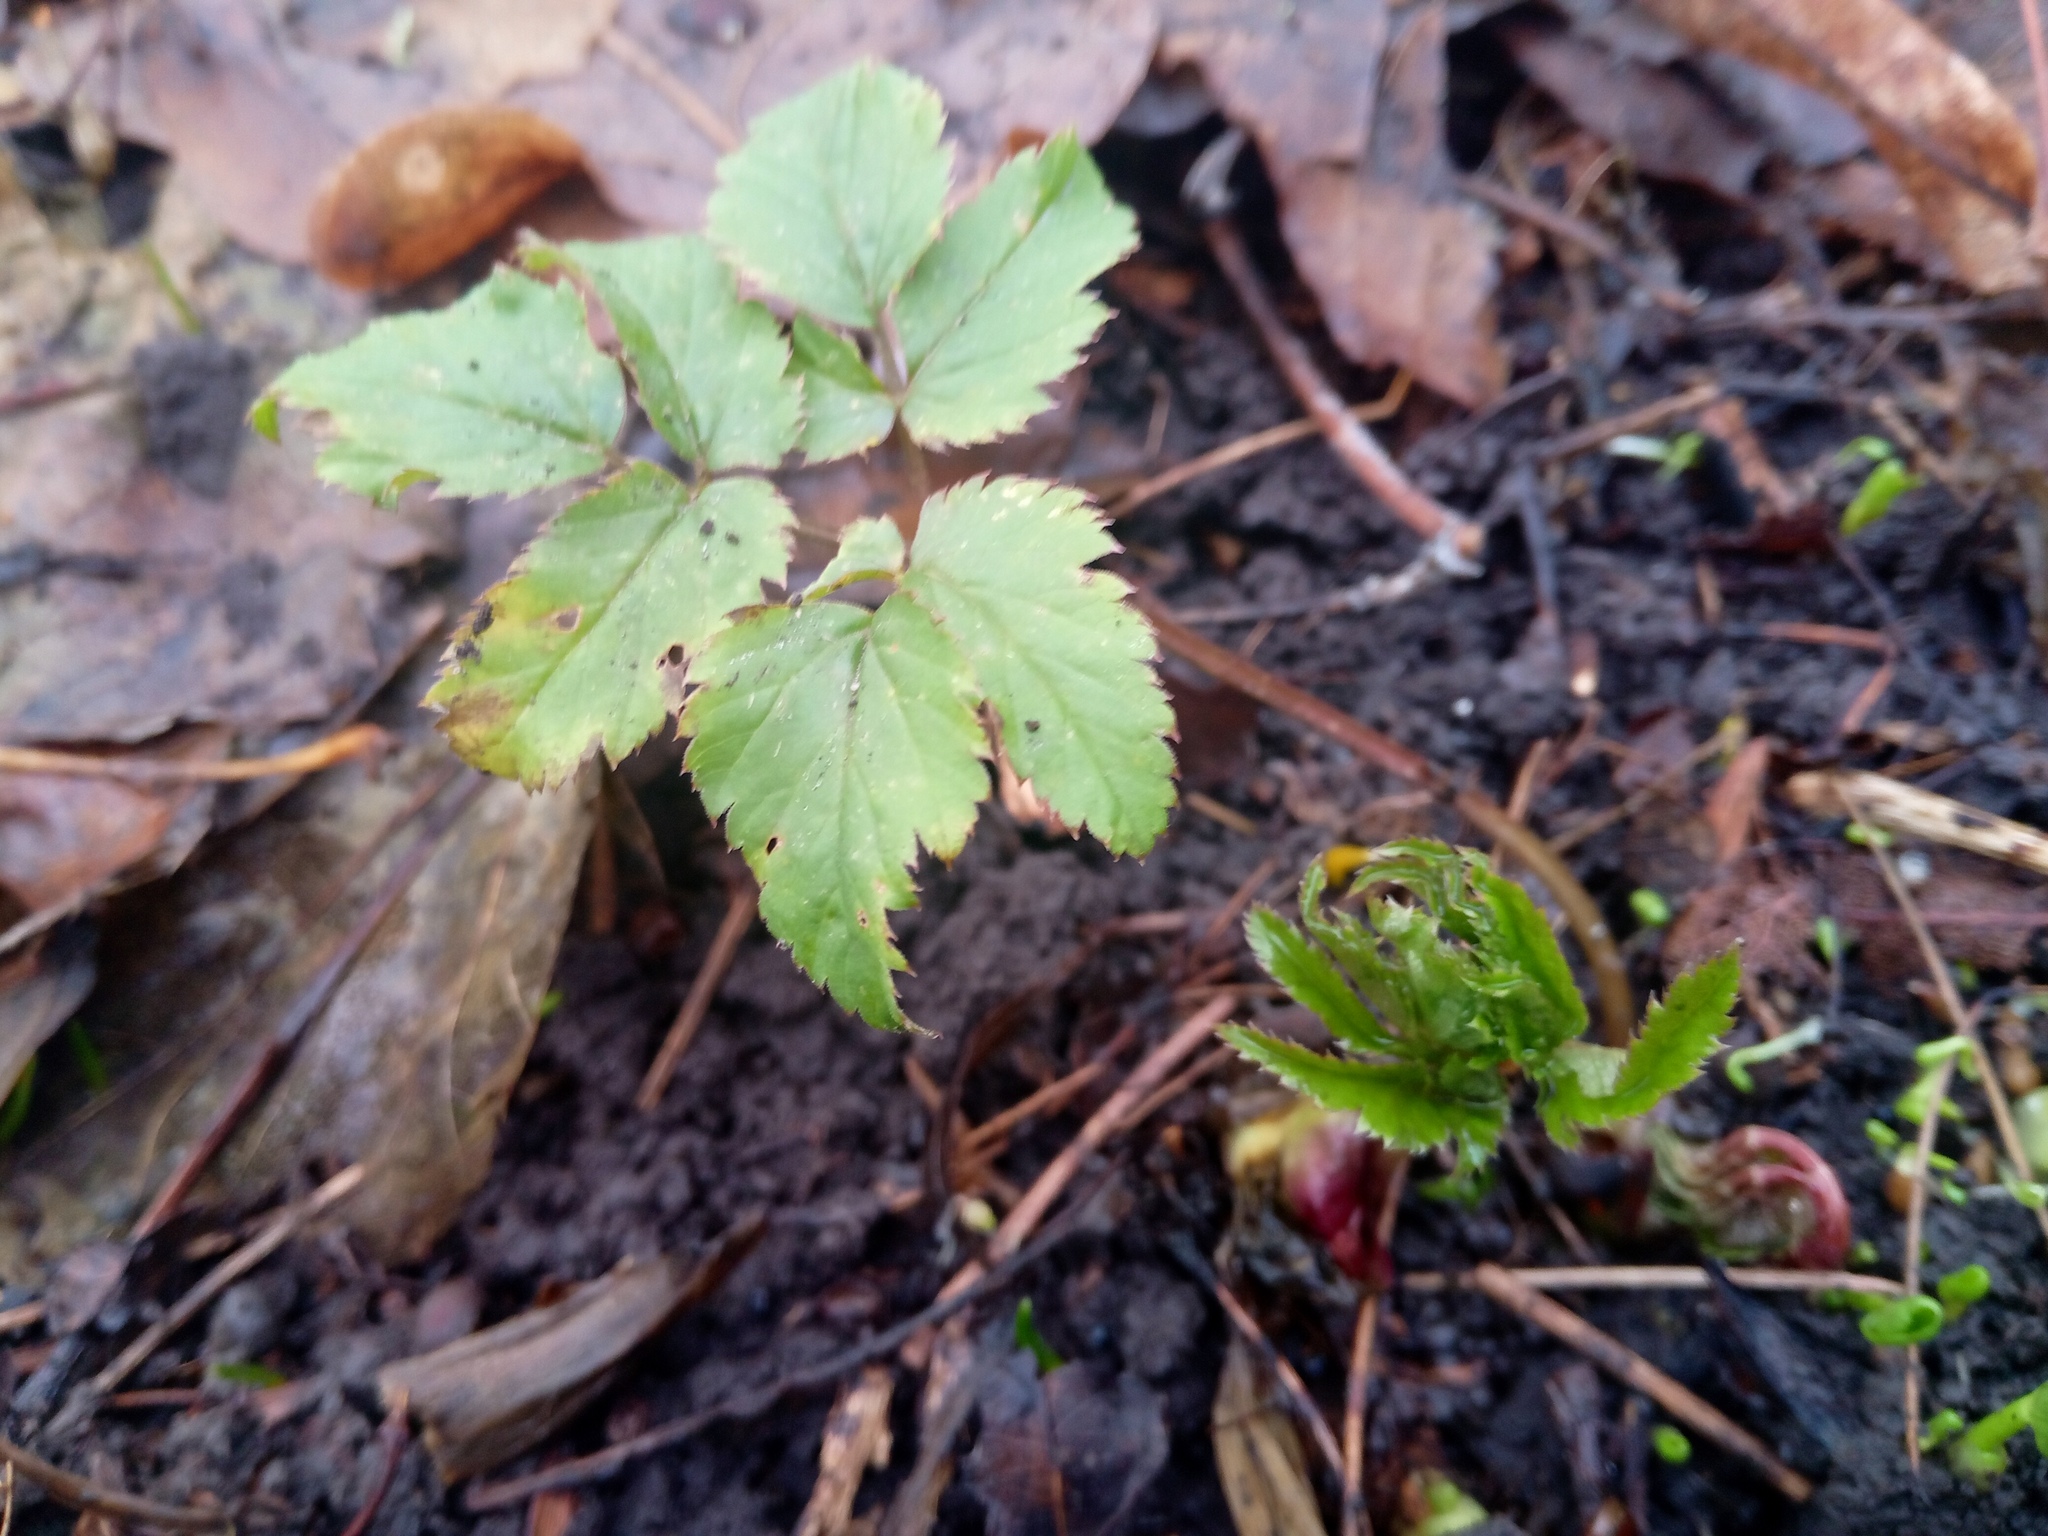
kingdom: Plantae
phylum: Tracheophyta
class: Magnoliopsida
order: Apiales
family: Apiaceae
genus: Aegopodium
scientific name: Aegopodium podagraria
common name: Ground-elder
